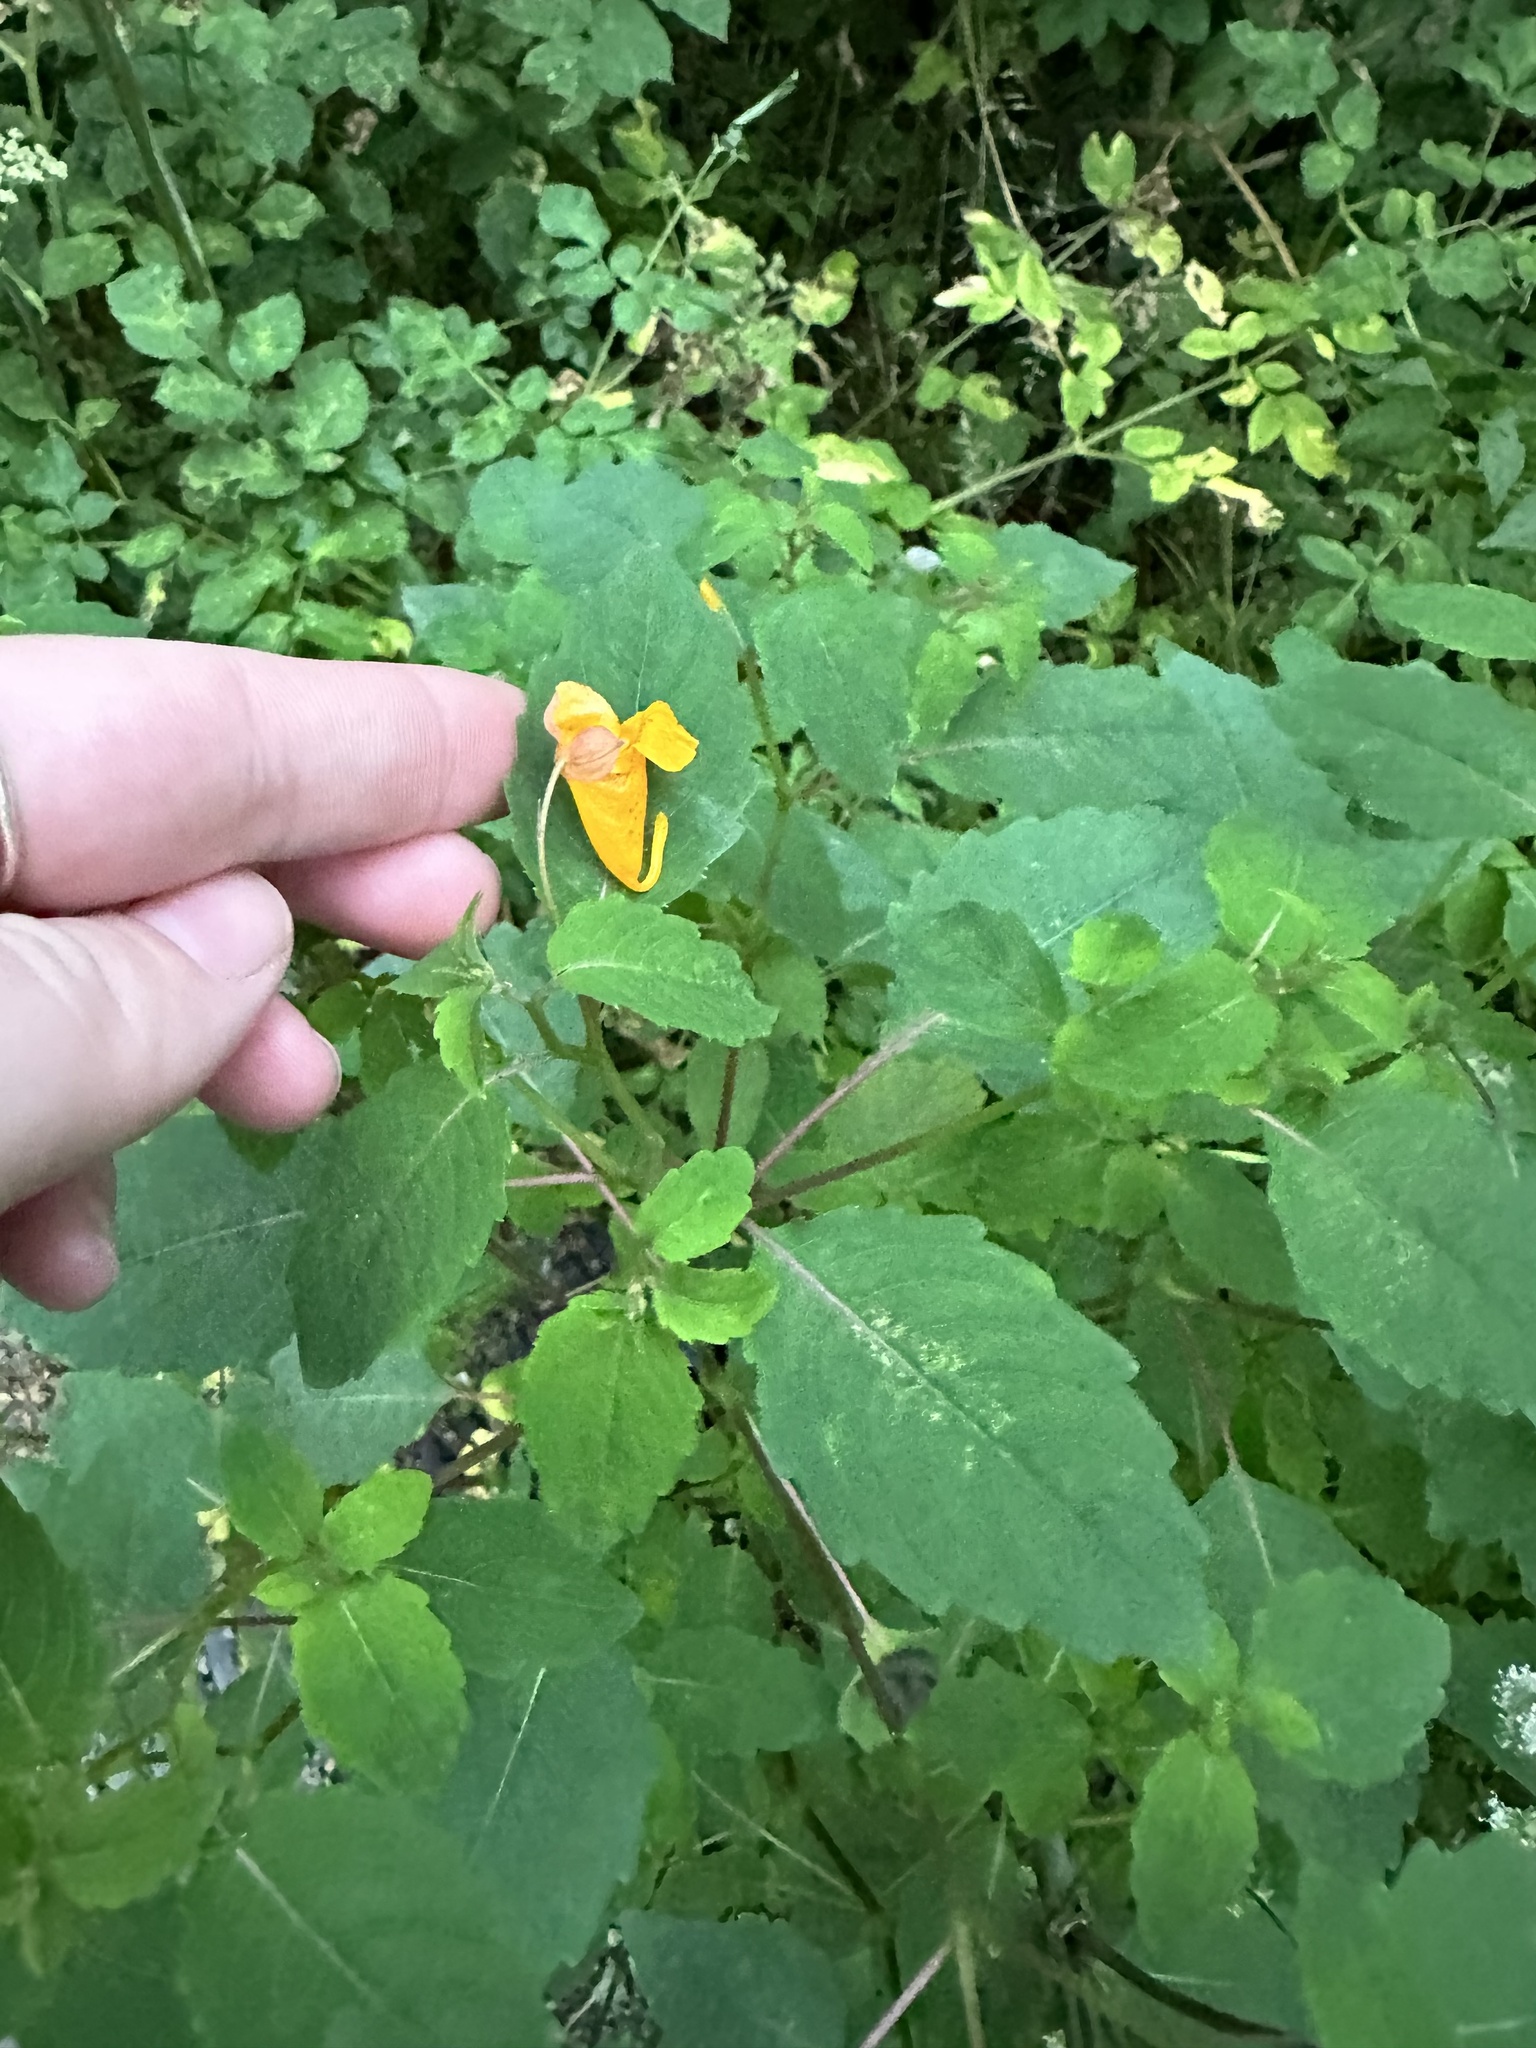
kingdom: Plantae
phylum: Tracheophyta
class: Magnoliopsida
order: Ericales
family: Balsaminaceae
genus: Impatiens
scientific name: Impatiens capensis
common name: Orange balsam
